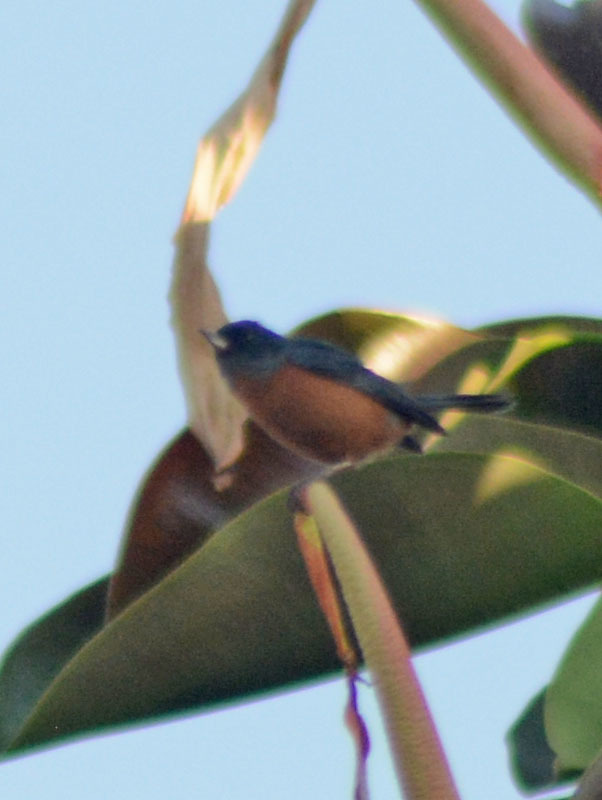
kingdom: Animalia
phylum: Chordata
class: Aves
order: Passeriformes
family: Thraupidae
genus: Diglossa
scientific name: Diglossa baritula
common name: Cinnamon-bellied flowerpiercer
